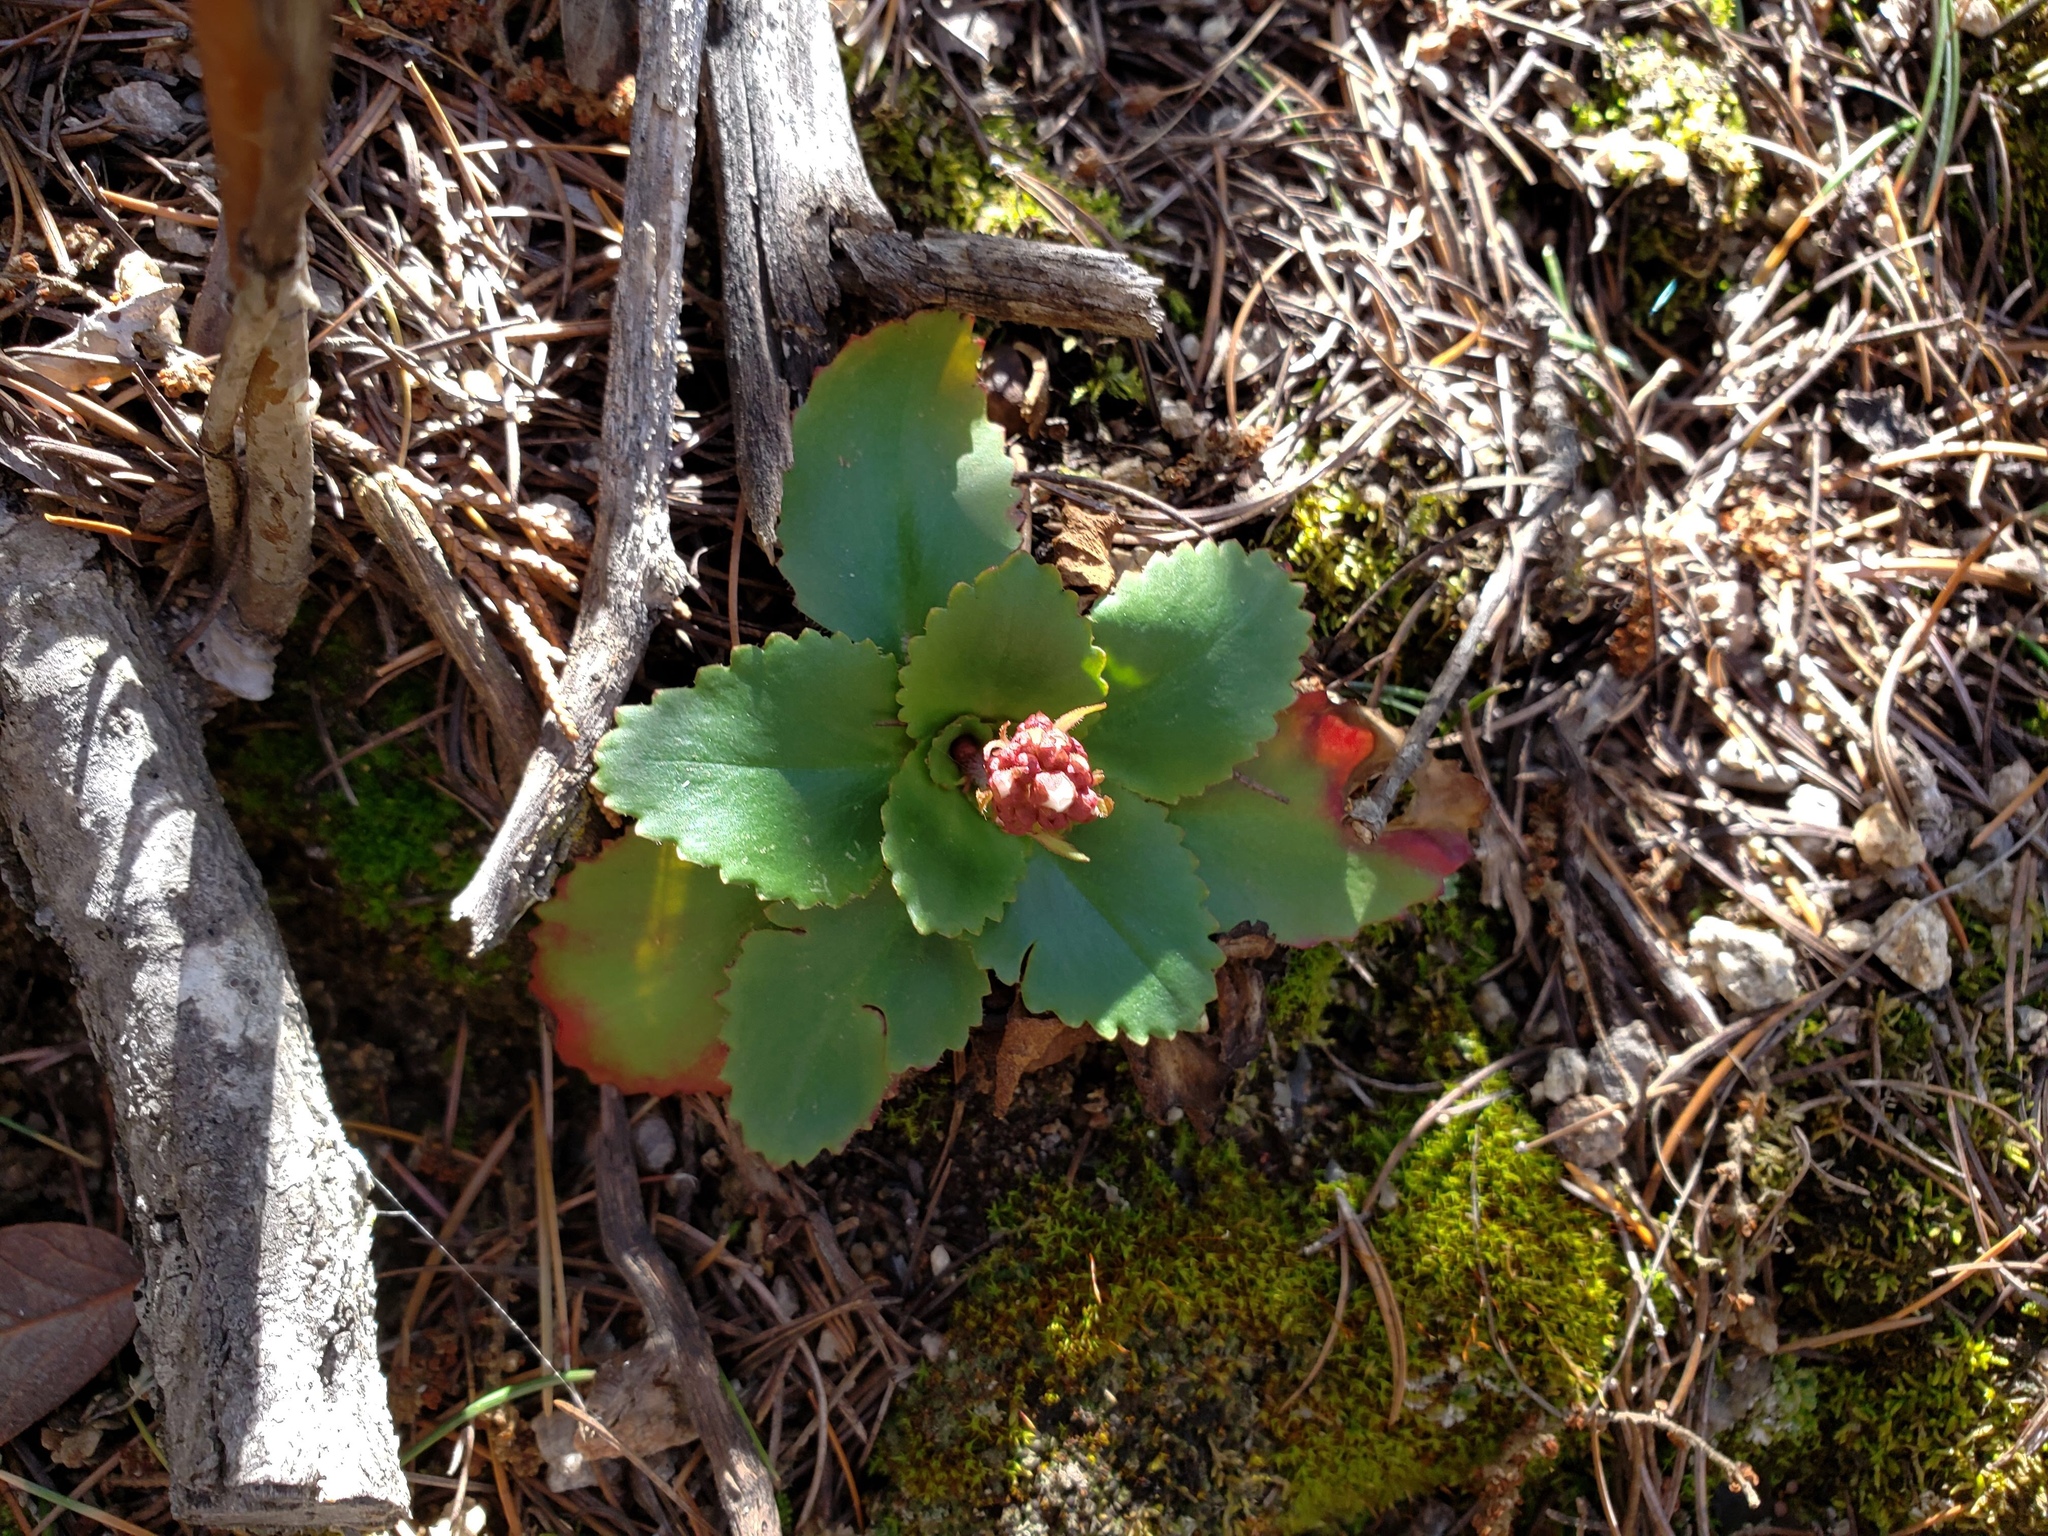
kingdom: Plantae
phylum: Tracheophyta
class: Magnoliopsida
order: Saxifragales
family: Saxifragaceae
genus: Micranthes
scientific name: Micranthes eriophora
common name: Redfuzz saxifrage
